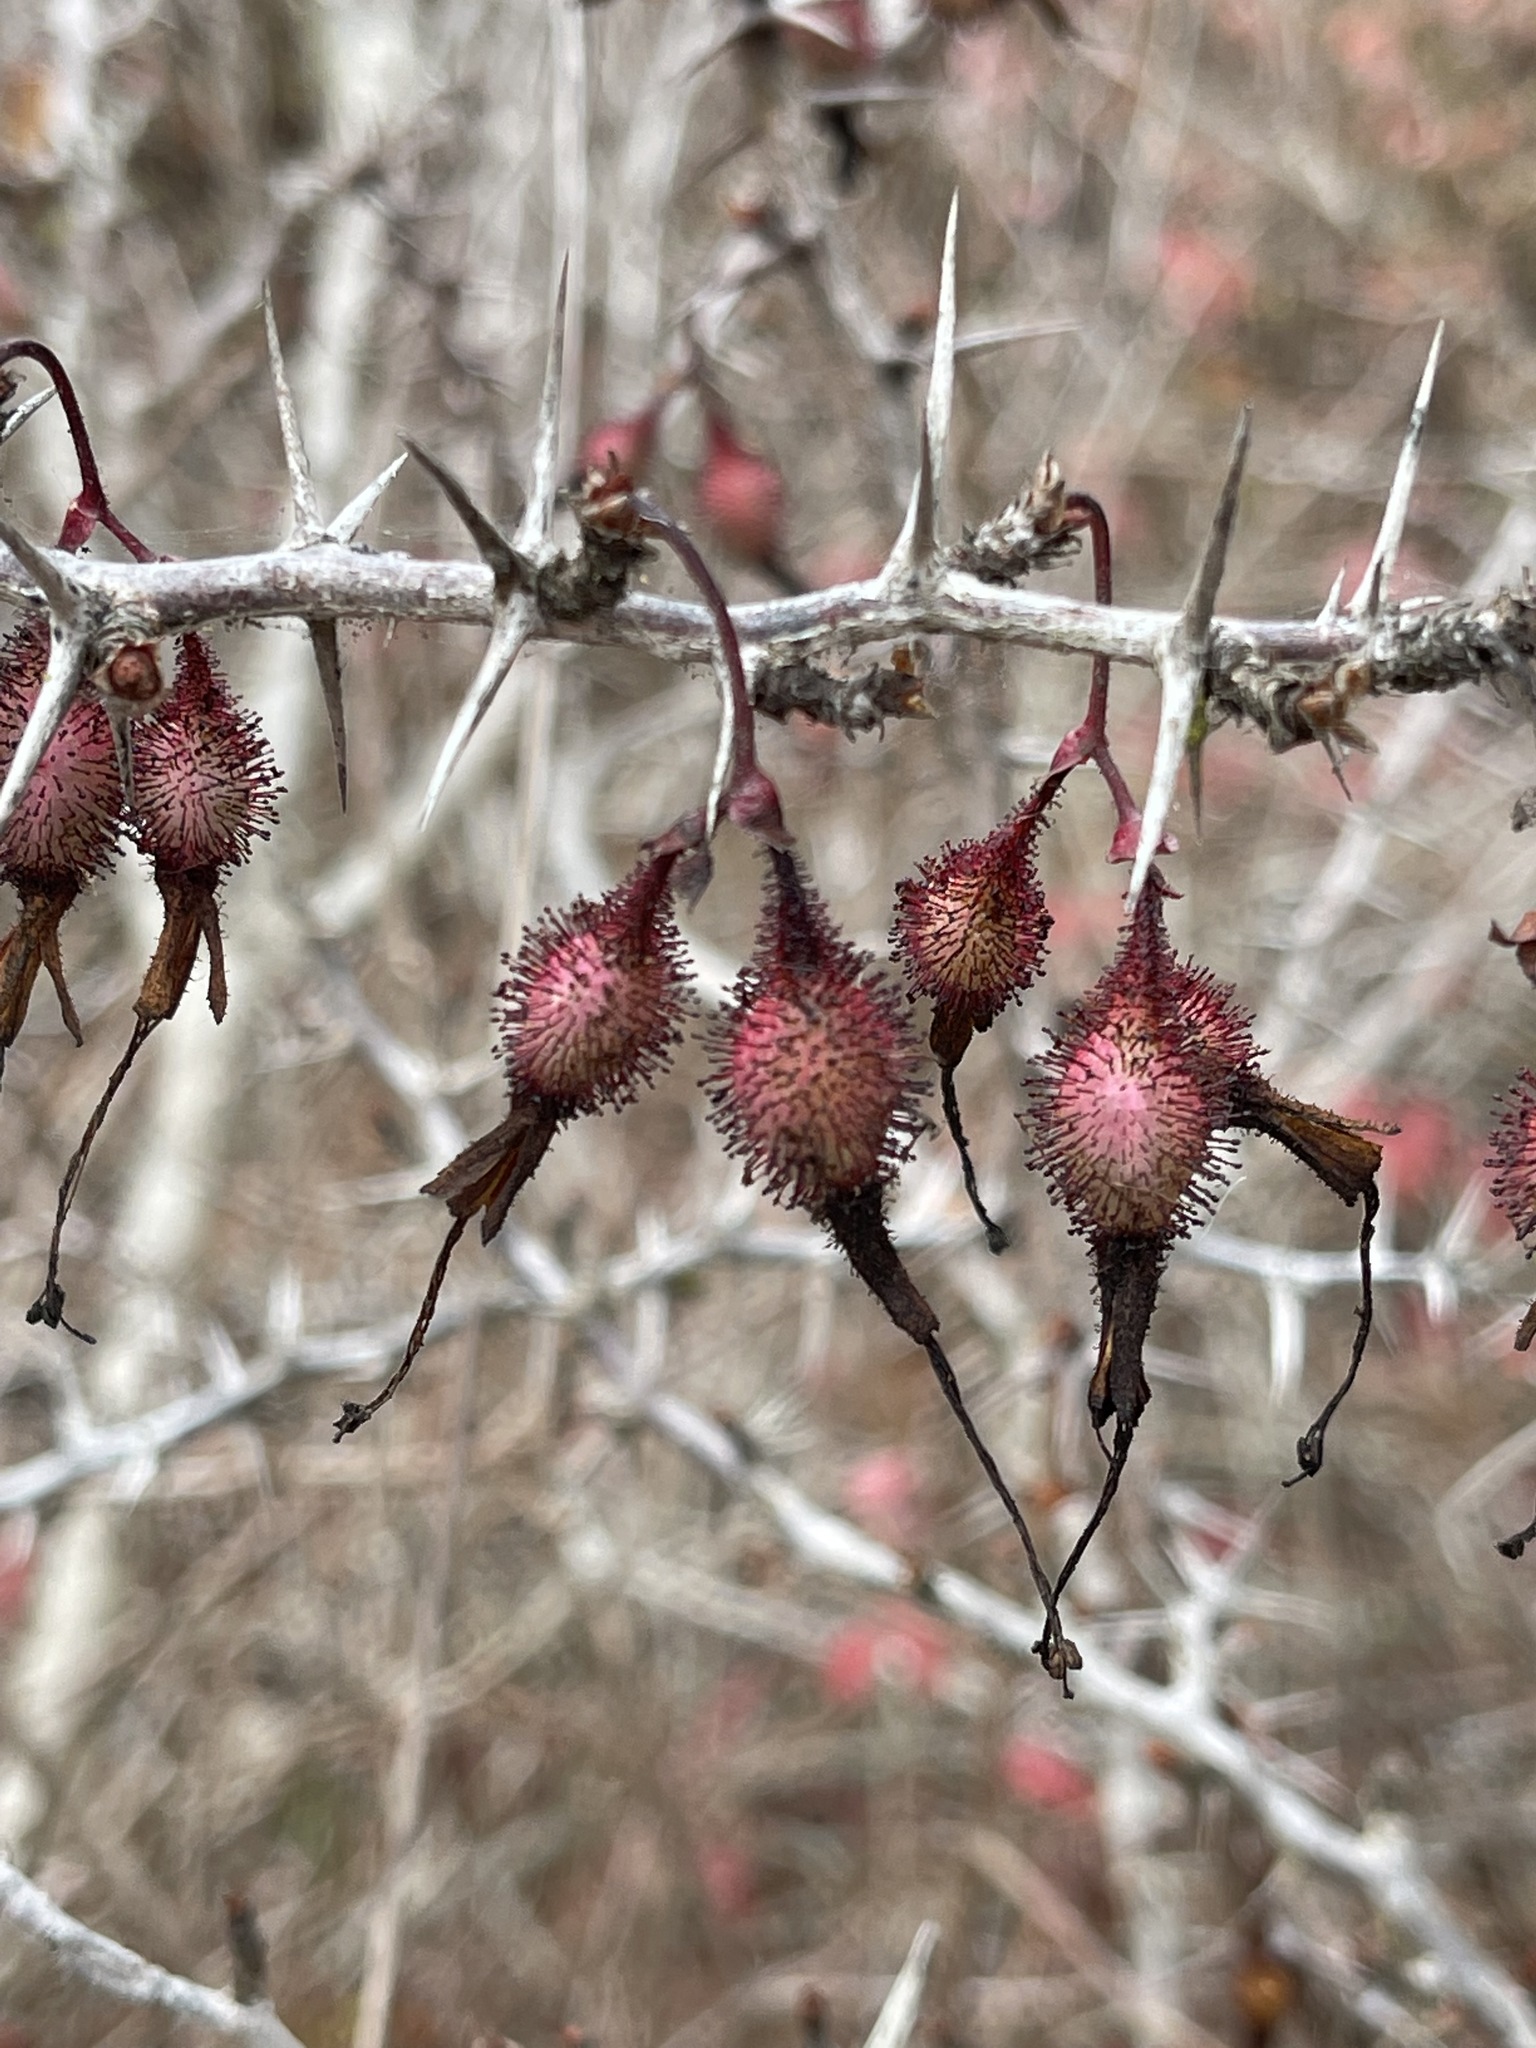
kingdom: Plantae
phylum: Tracheophyta
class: Magnoliopsida
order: Saxifragales
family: Grossulariaceae
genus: Ribes
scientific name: Ribes speciosum
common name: Fuchsia-flower gooseberry
